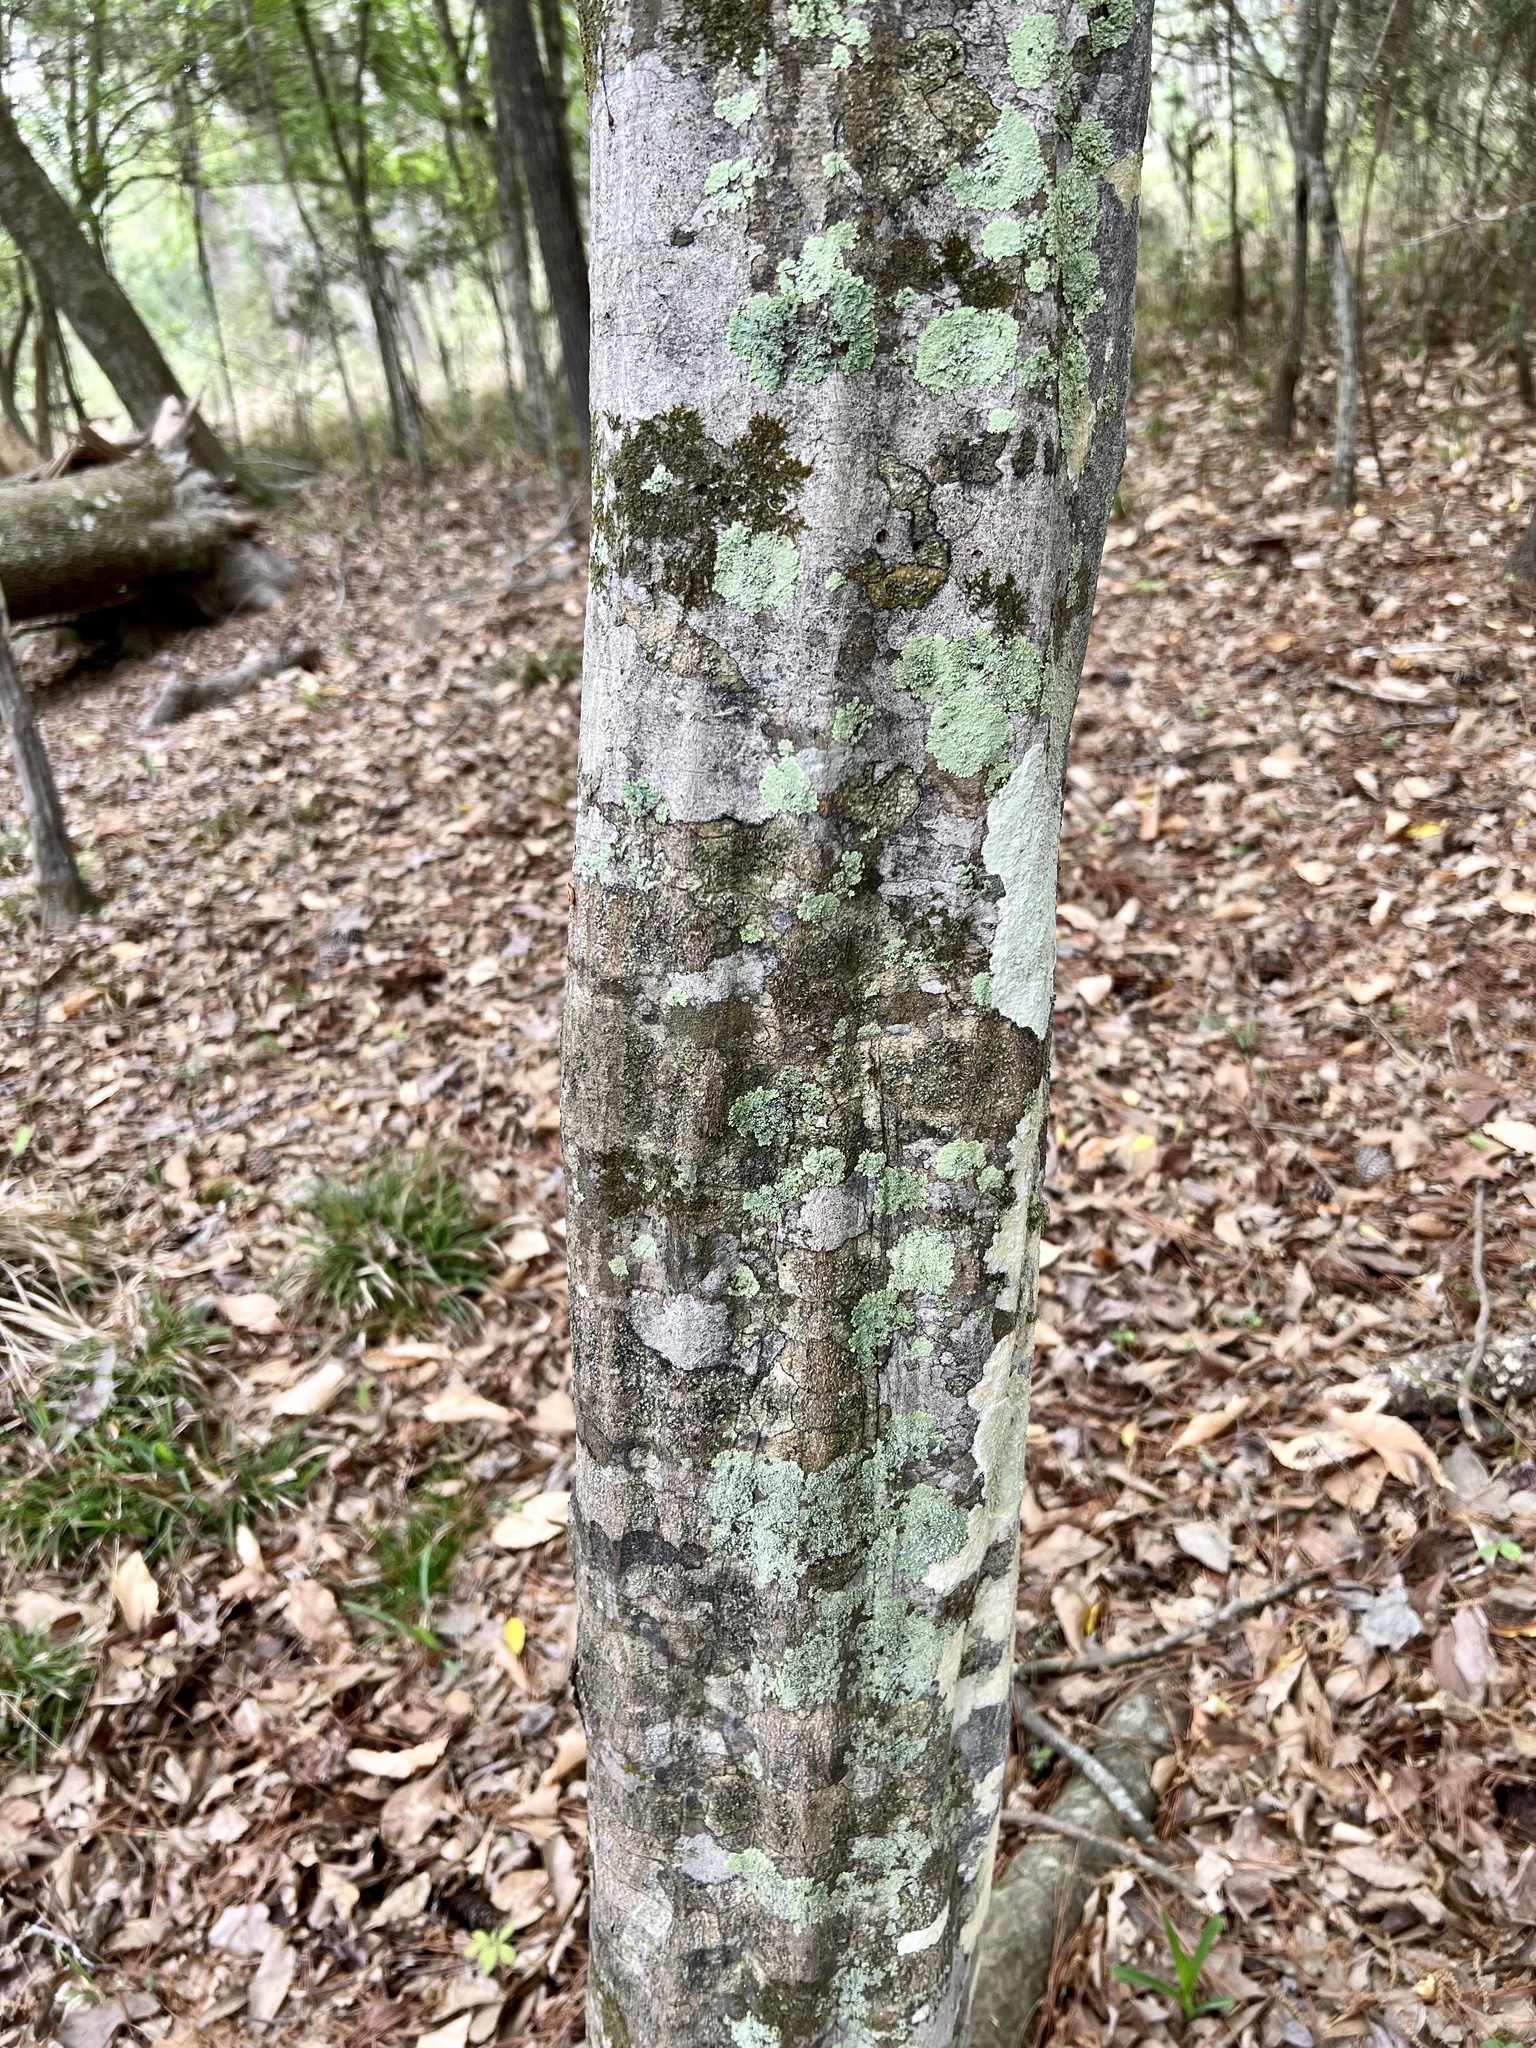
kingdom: Plantae
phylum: Tracheophyta
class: Magnoliopsida
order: Fagales
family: Betulaceae
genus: Carpinus
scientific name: Carpinus caroliniana
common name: American hornbeam
